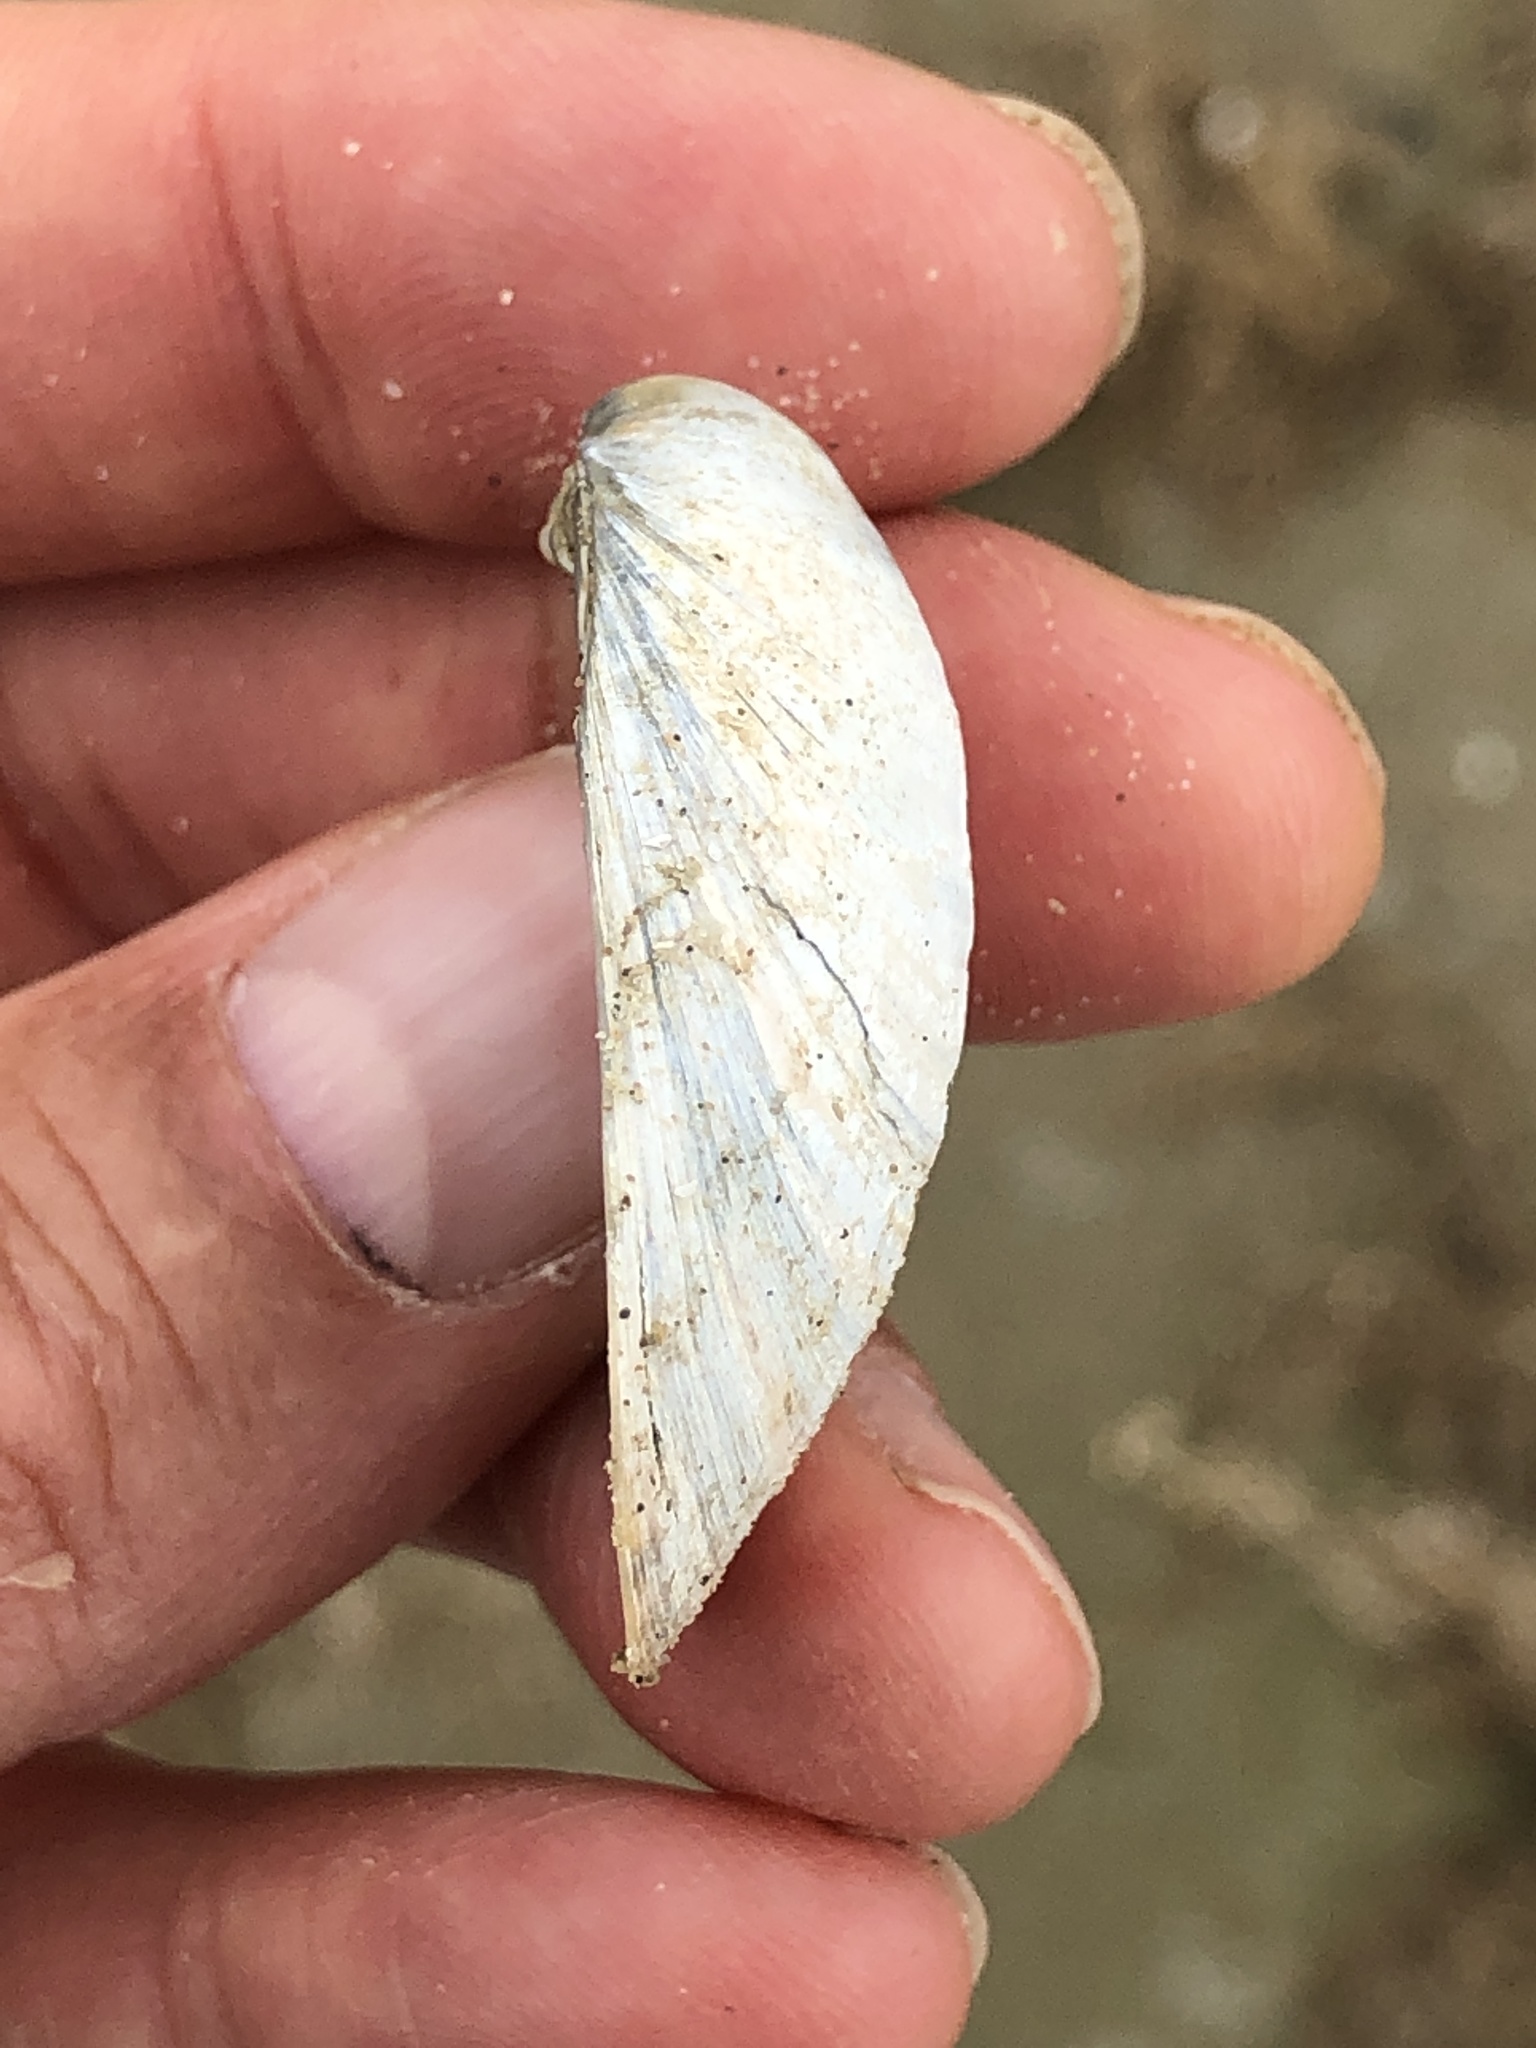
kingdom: Animalia
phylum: Mollusca
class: Bivalvia
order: Venerida
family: Veneridae
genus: Agriopoma
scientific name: Agriopoma texasianum
